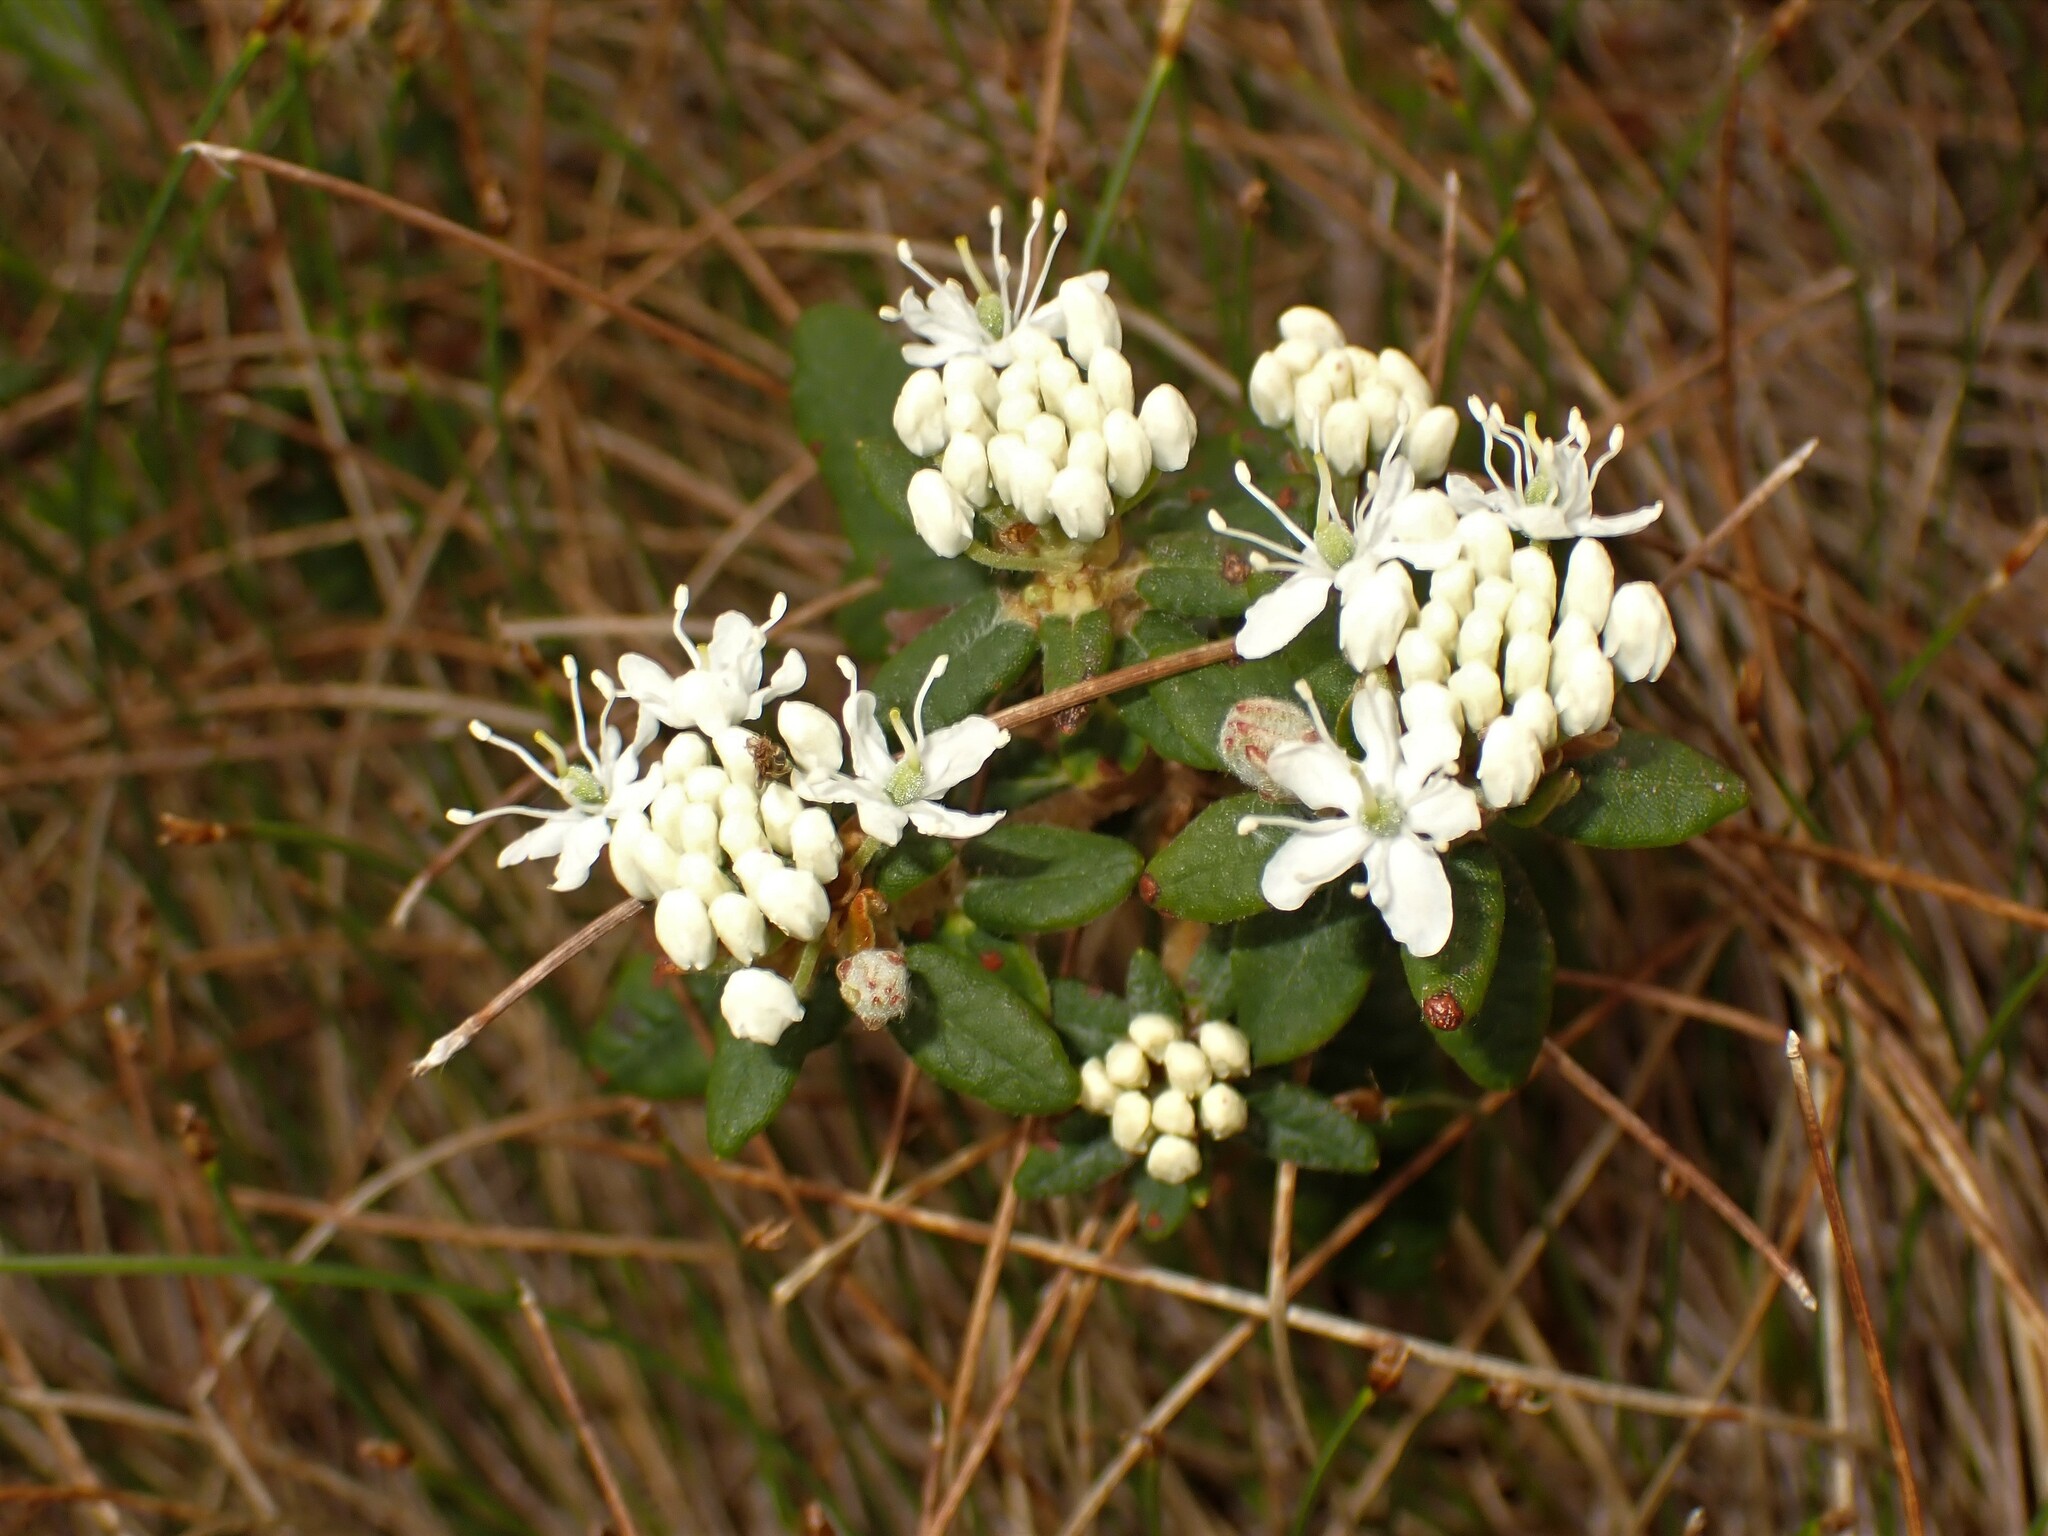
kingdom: Plantae
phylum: Tracheophyta
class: Magnoliopsida
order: Ericales
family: Ericaceae
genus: Rhododendron
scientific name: Rhododendron groenlandicum
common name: Bog labrador tea
